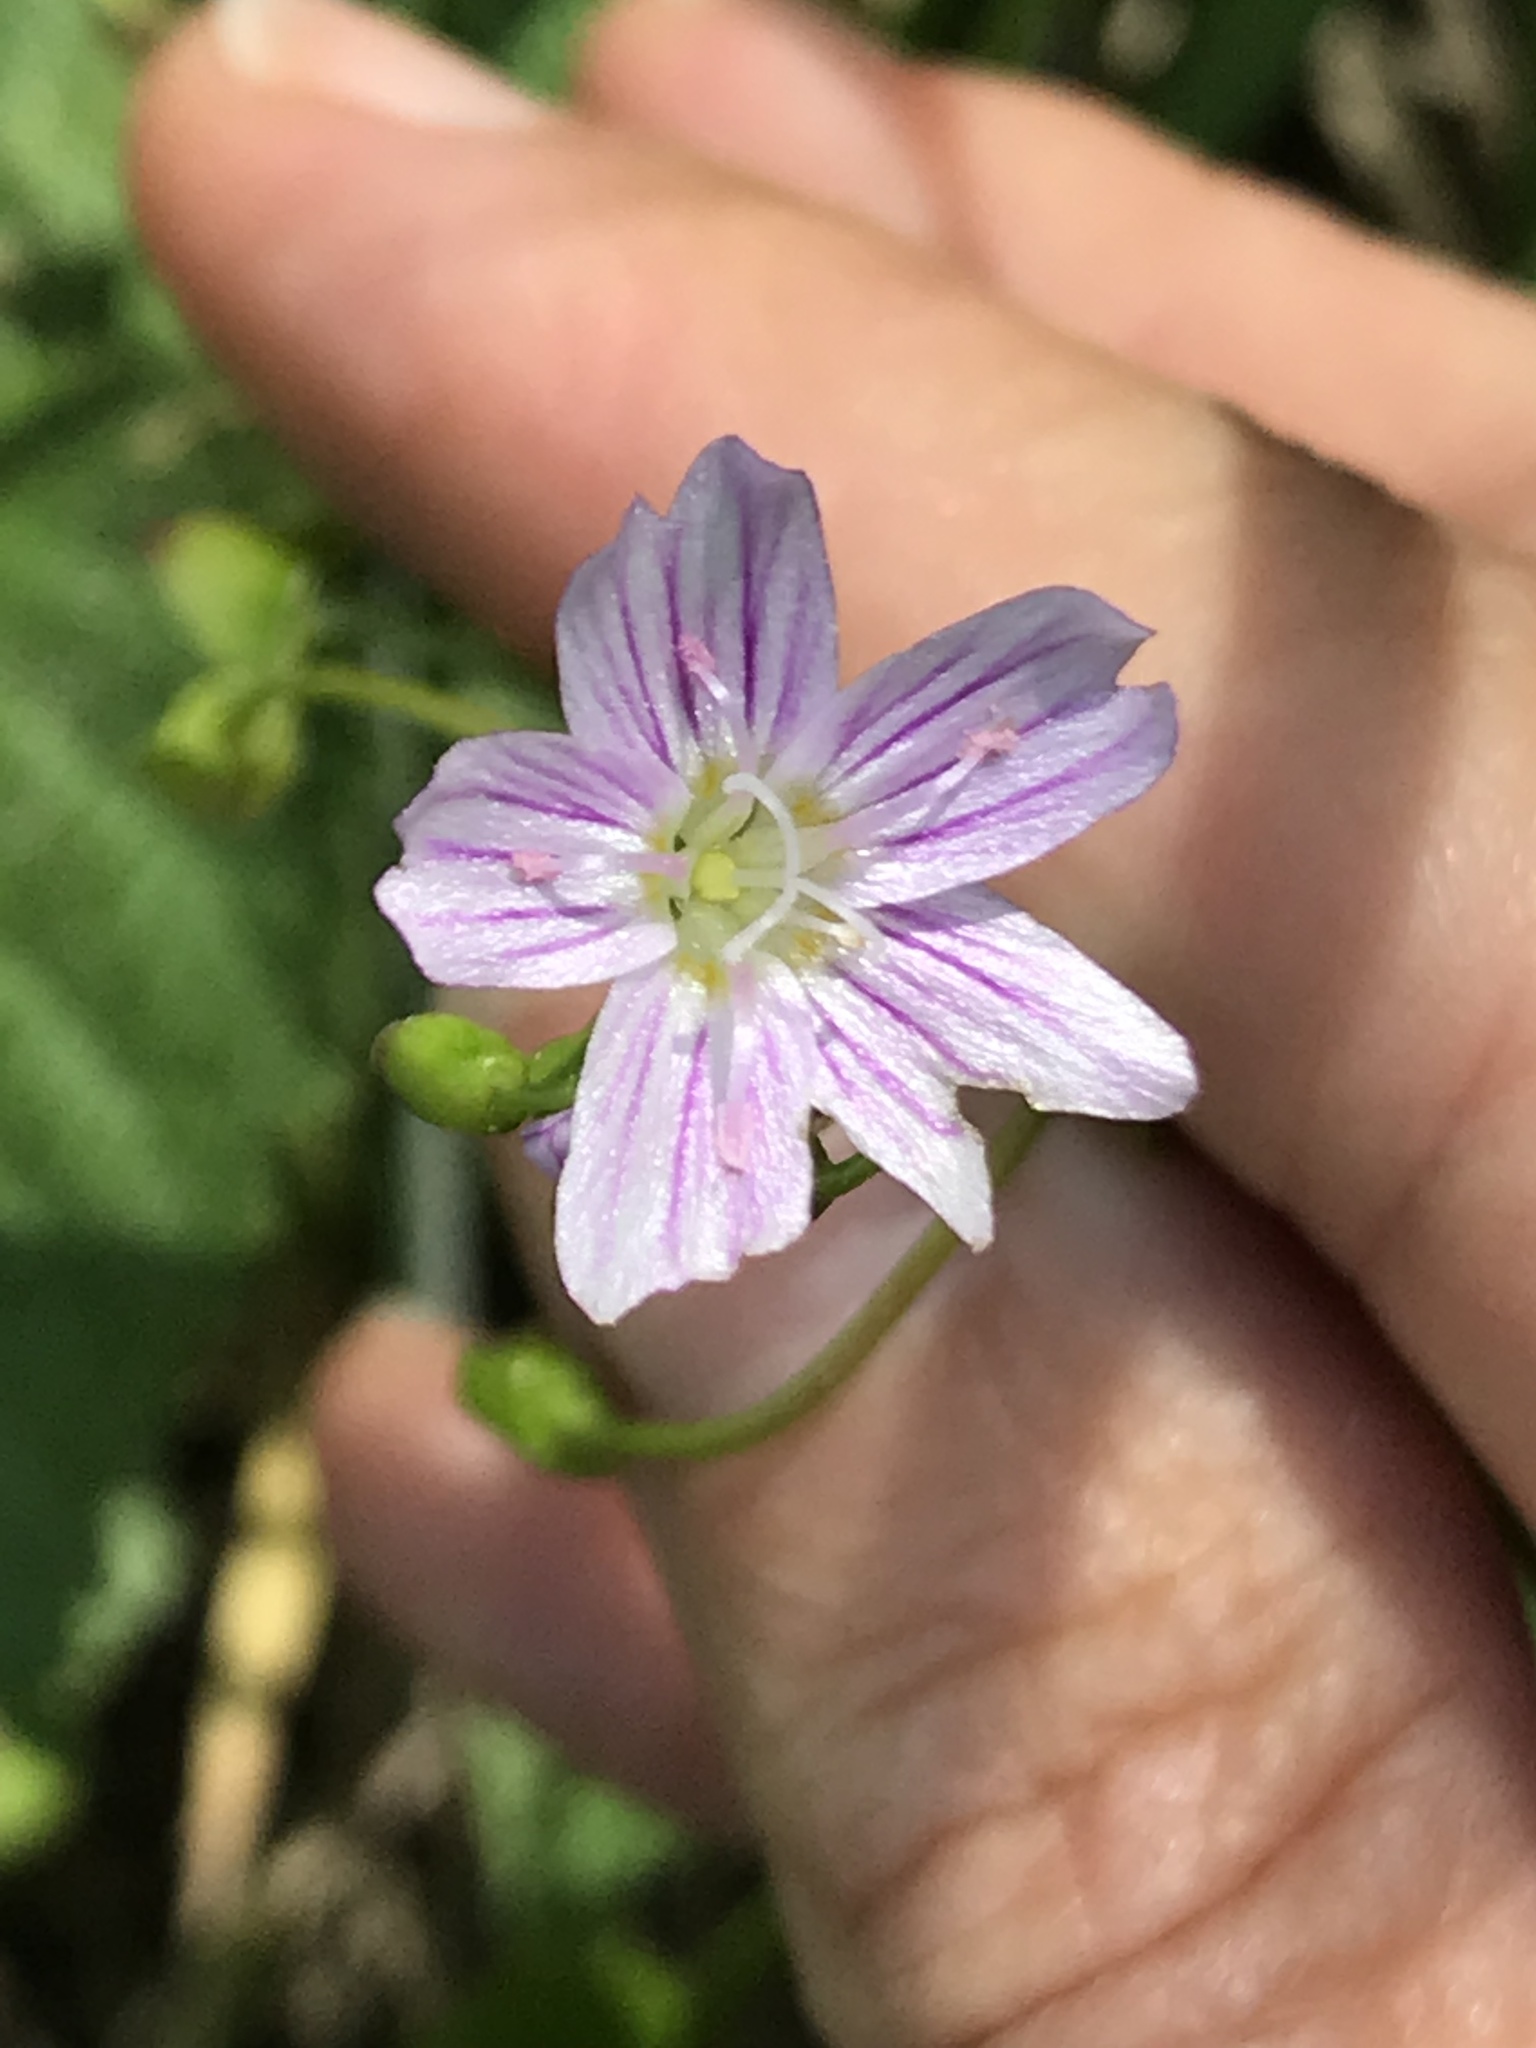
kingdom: Plantae
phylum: Tracheophyta
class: Magnoliopsida
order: Caryophyllales
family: Montiaceae
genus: Claytonia
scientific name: Claytonia sibirica
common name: Pink purslane
